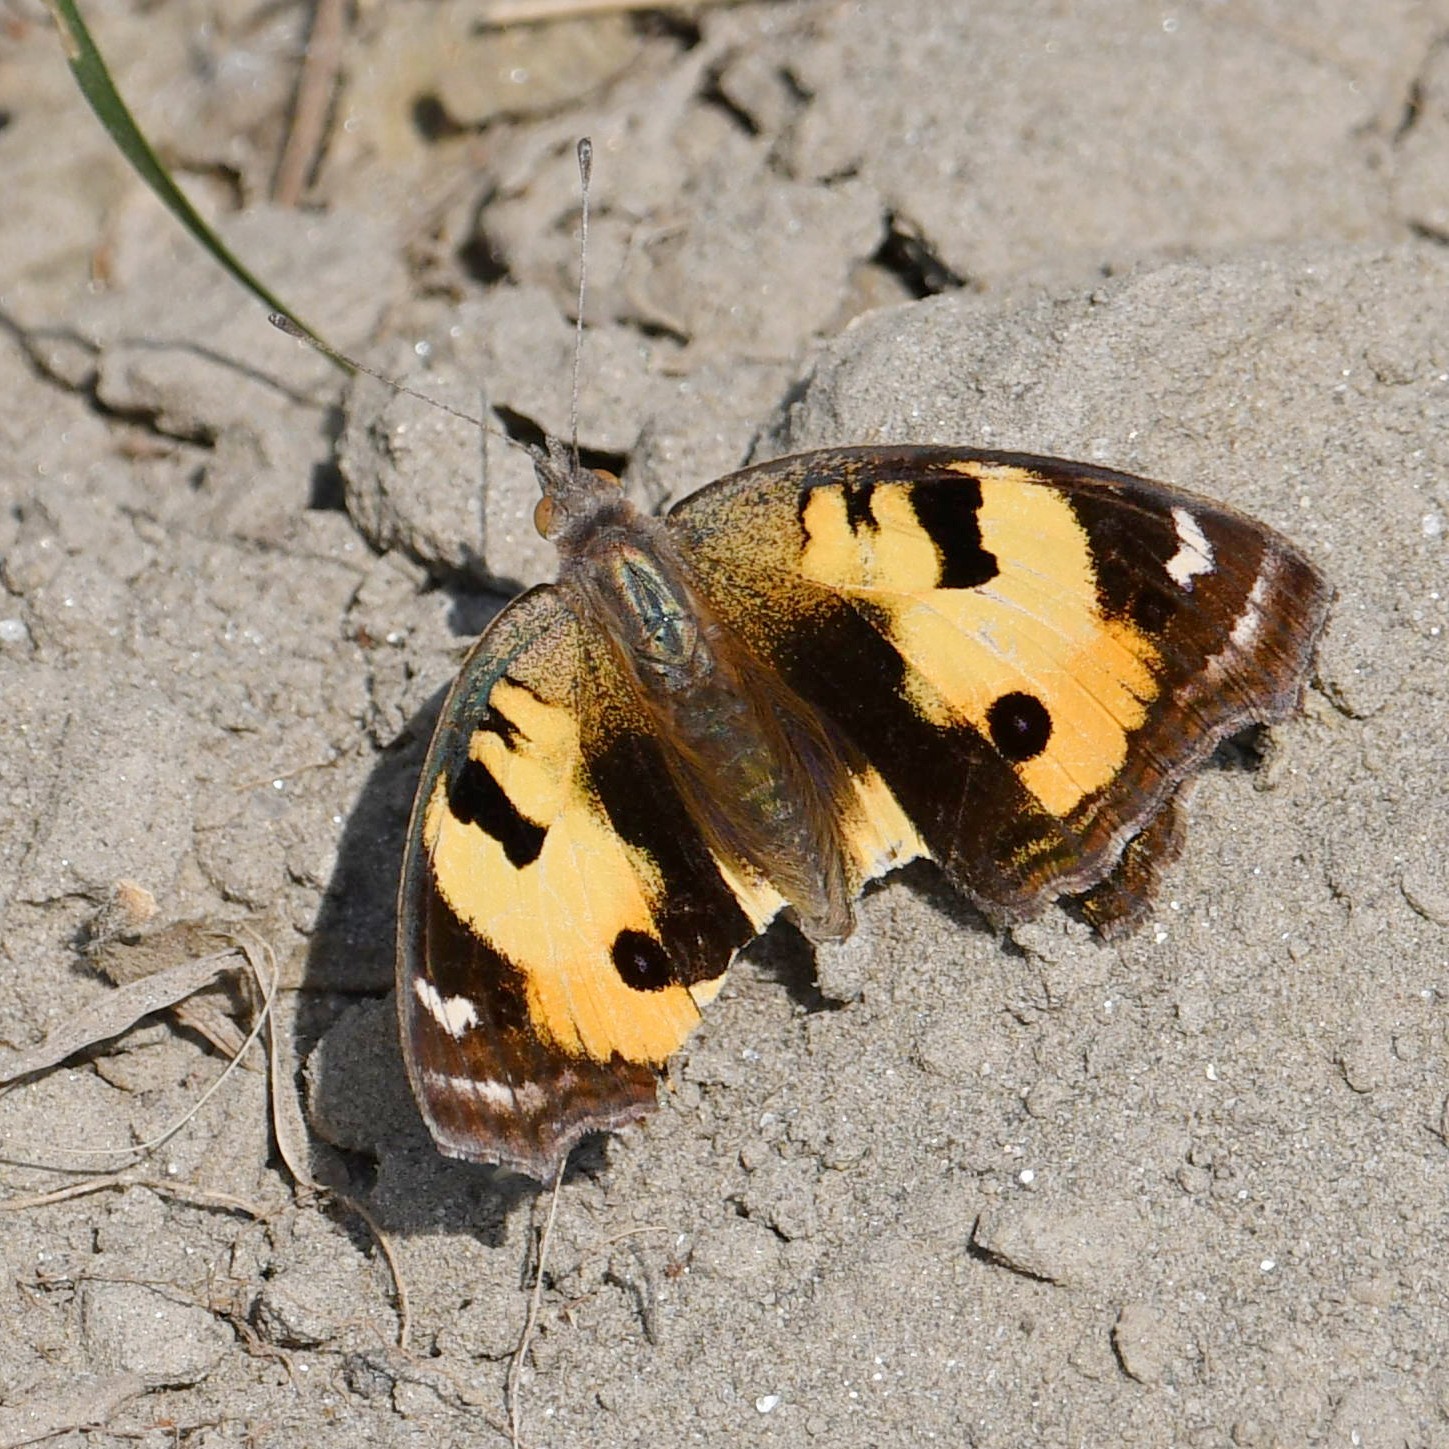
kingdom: Animalia
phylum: Arthropoda
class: Insecta
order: Lepidoptera
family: Nymphalidae
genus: Junonia
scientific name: Junonia hierta
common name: Yellow pansy
